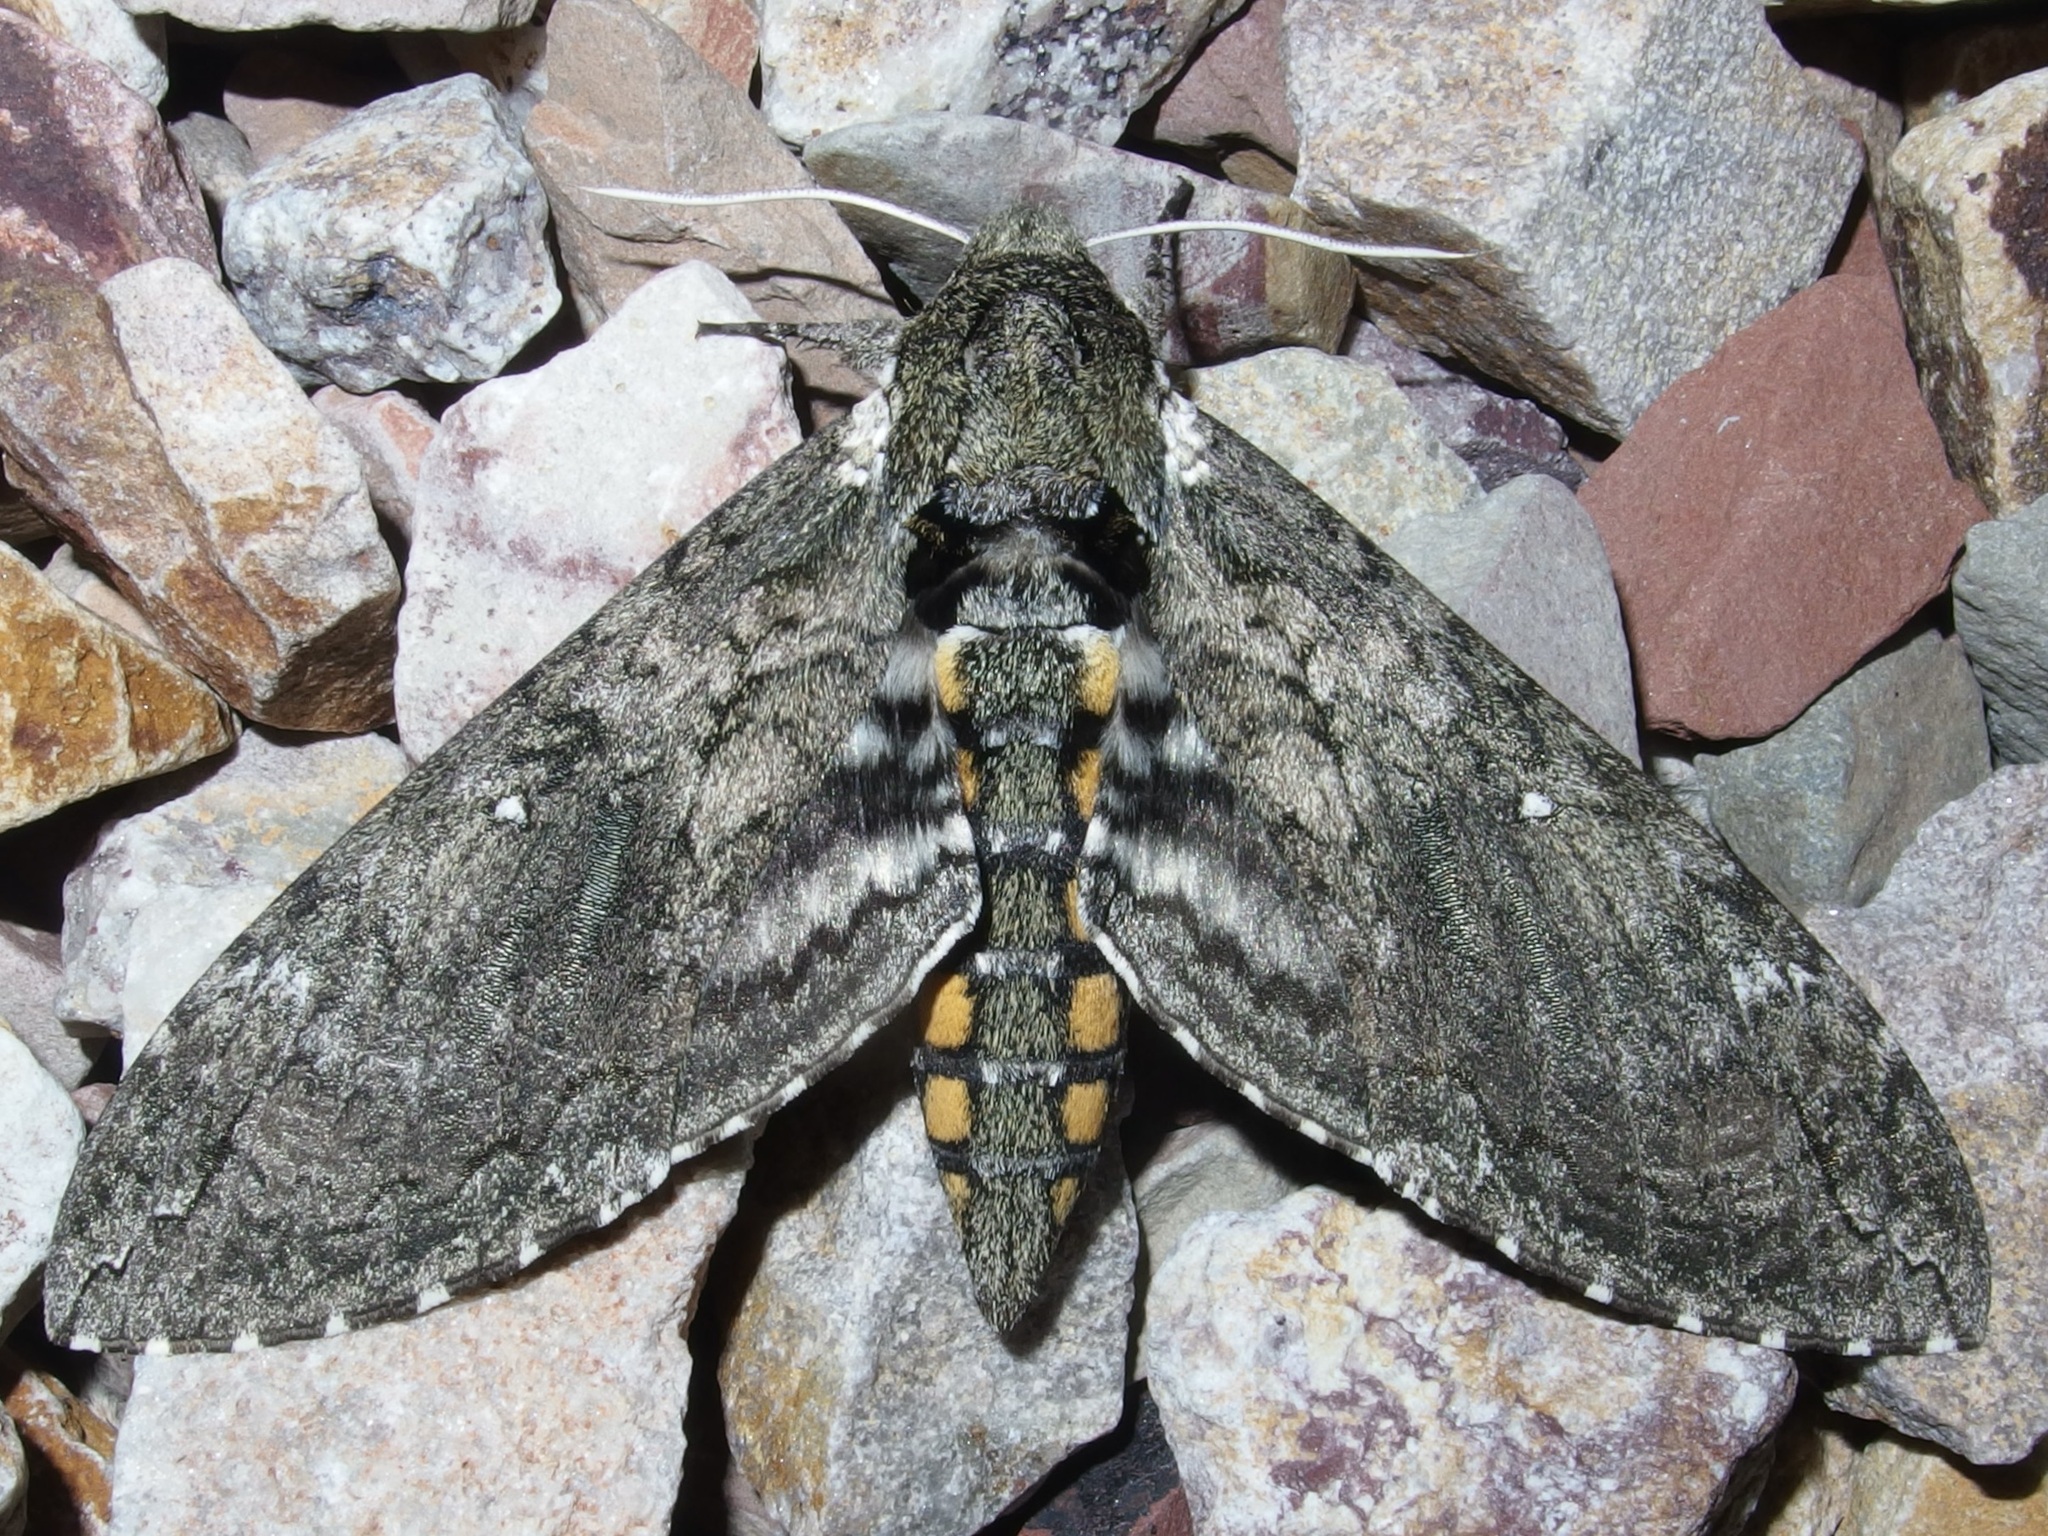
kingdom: Animalia
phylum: Arthropoda
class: Insecta
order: Lepidoptera
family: Sphingidae
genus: Manduca
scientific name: Manduca sexta
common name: Carolina sphinx
